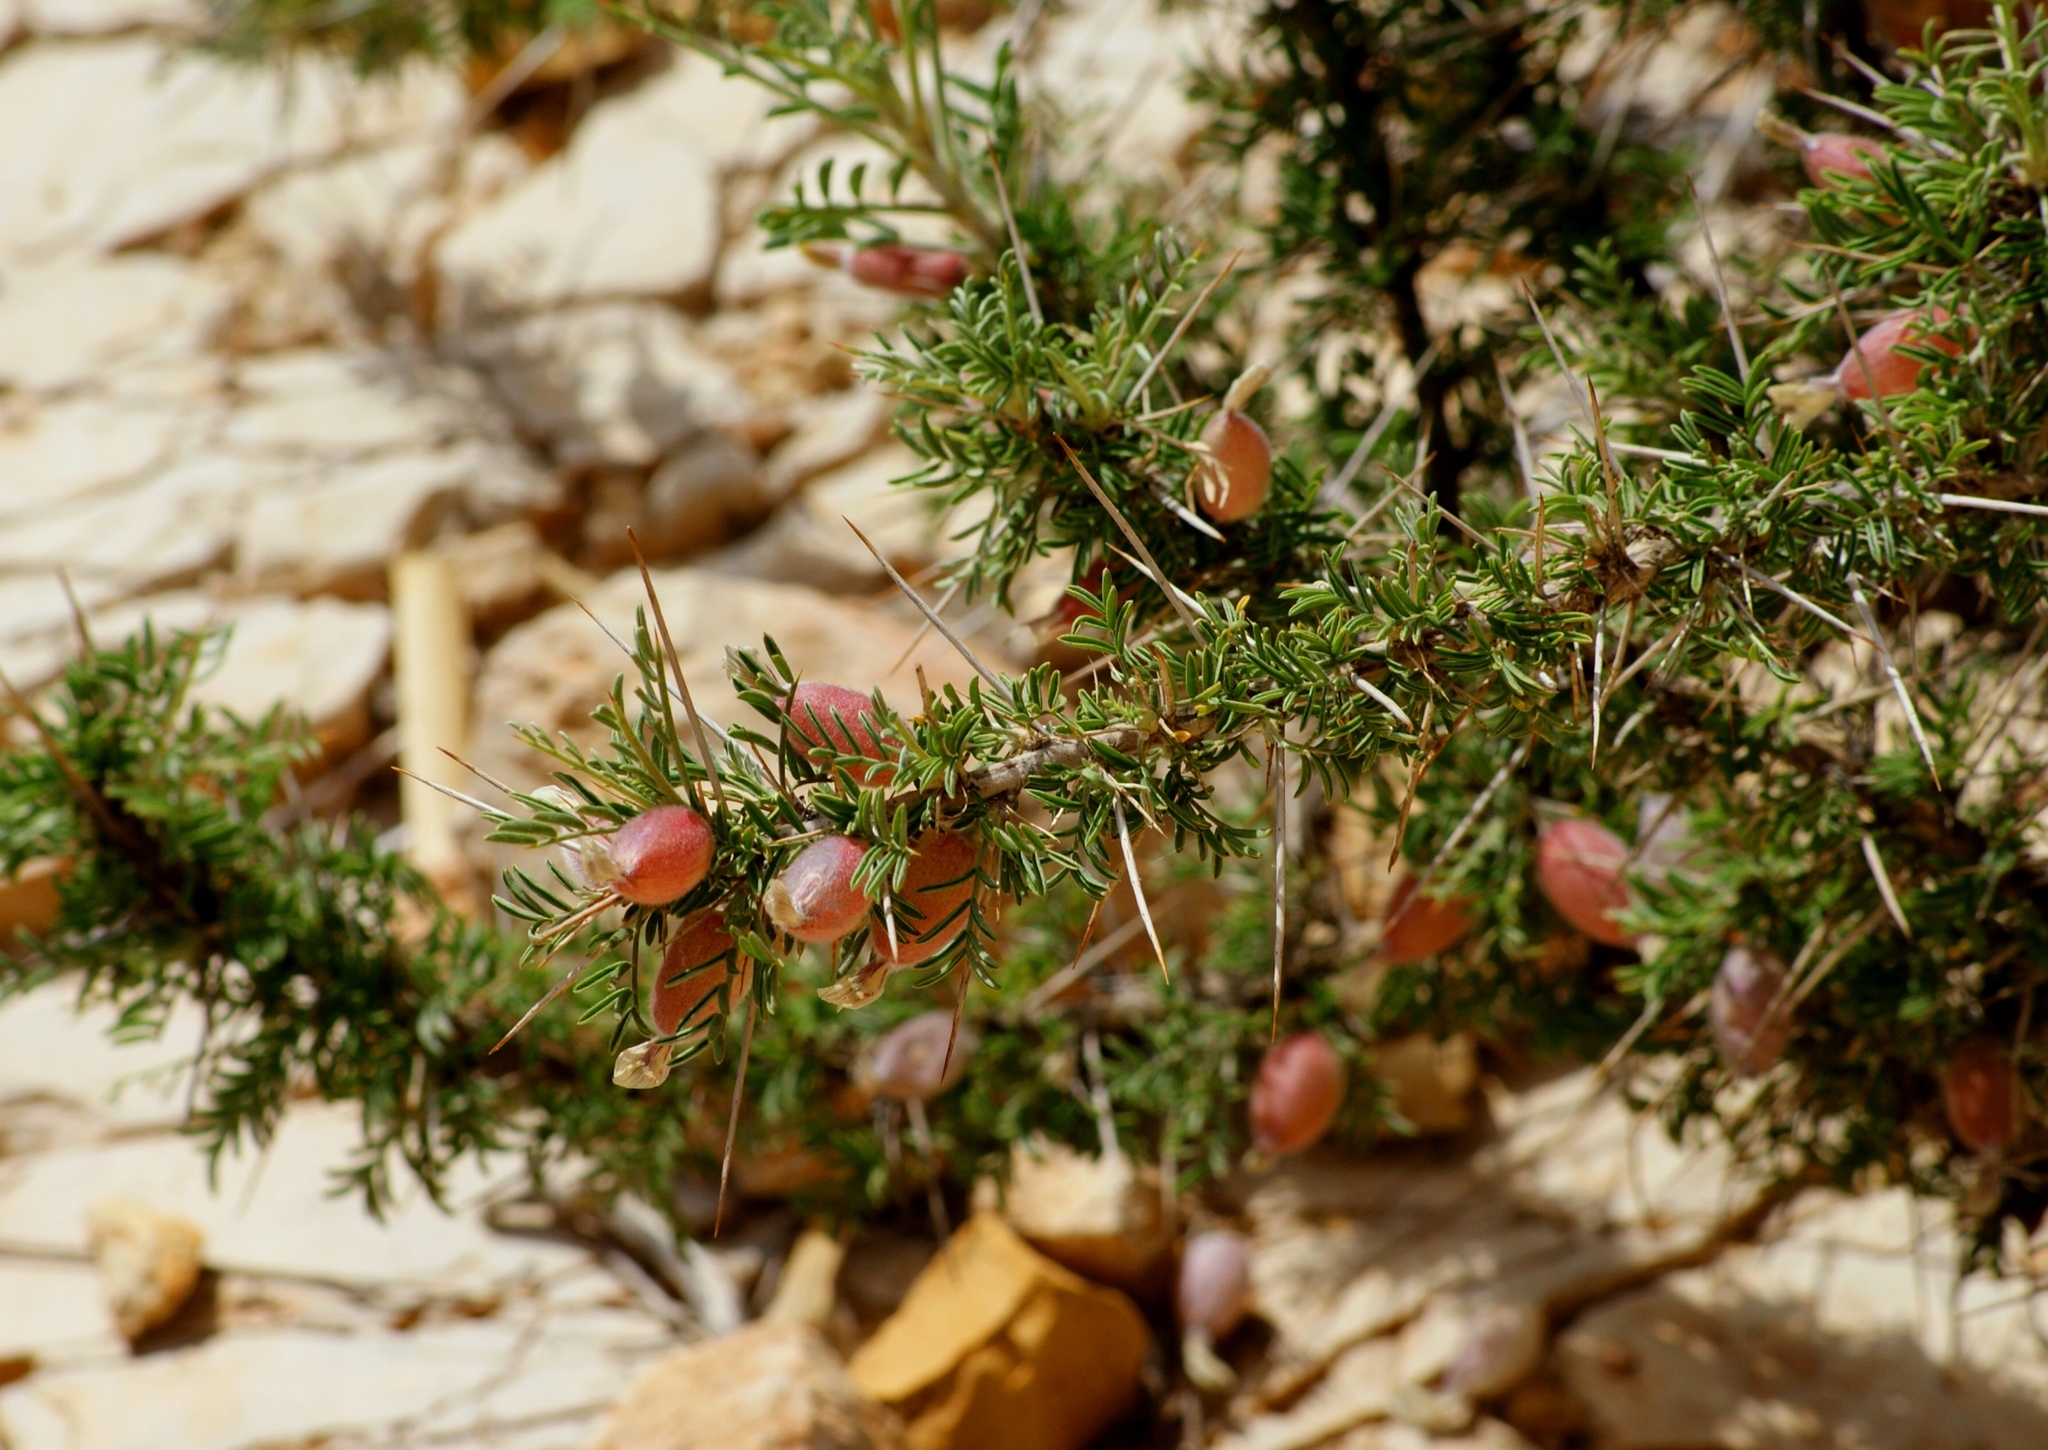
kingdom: Plantae
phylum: Tracheophyta
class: Magnoliopsida
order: Fabales
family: Fabaceae
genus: Astragalus
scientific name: Astragalus spinosus
